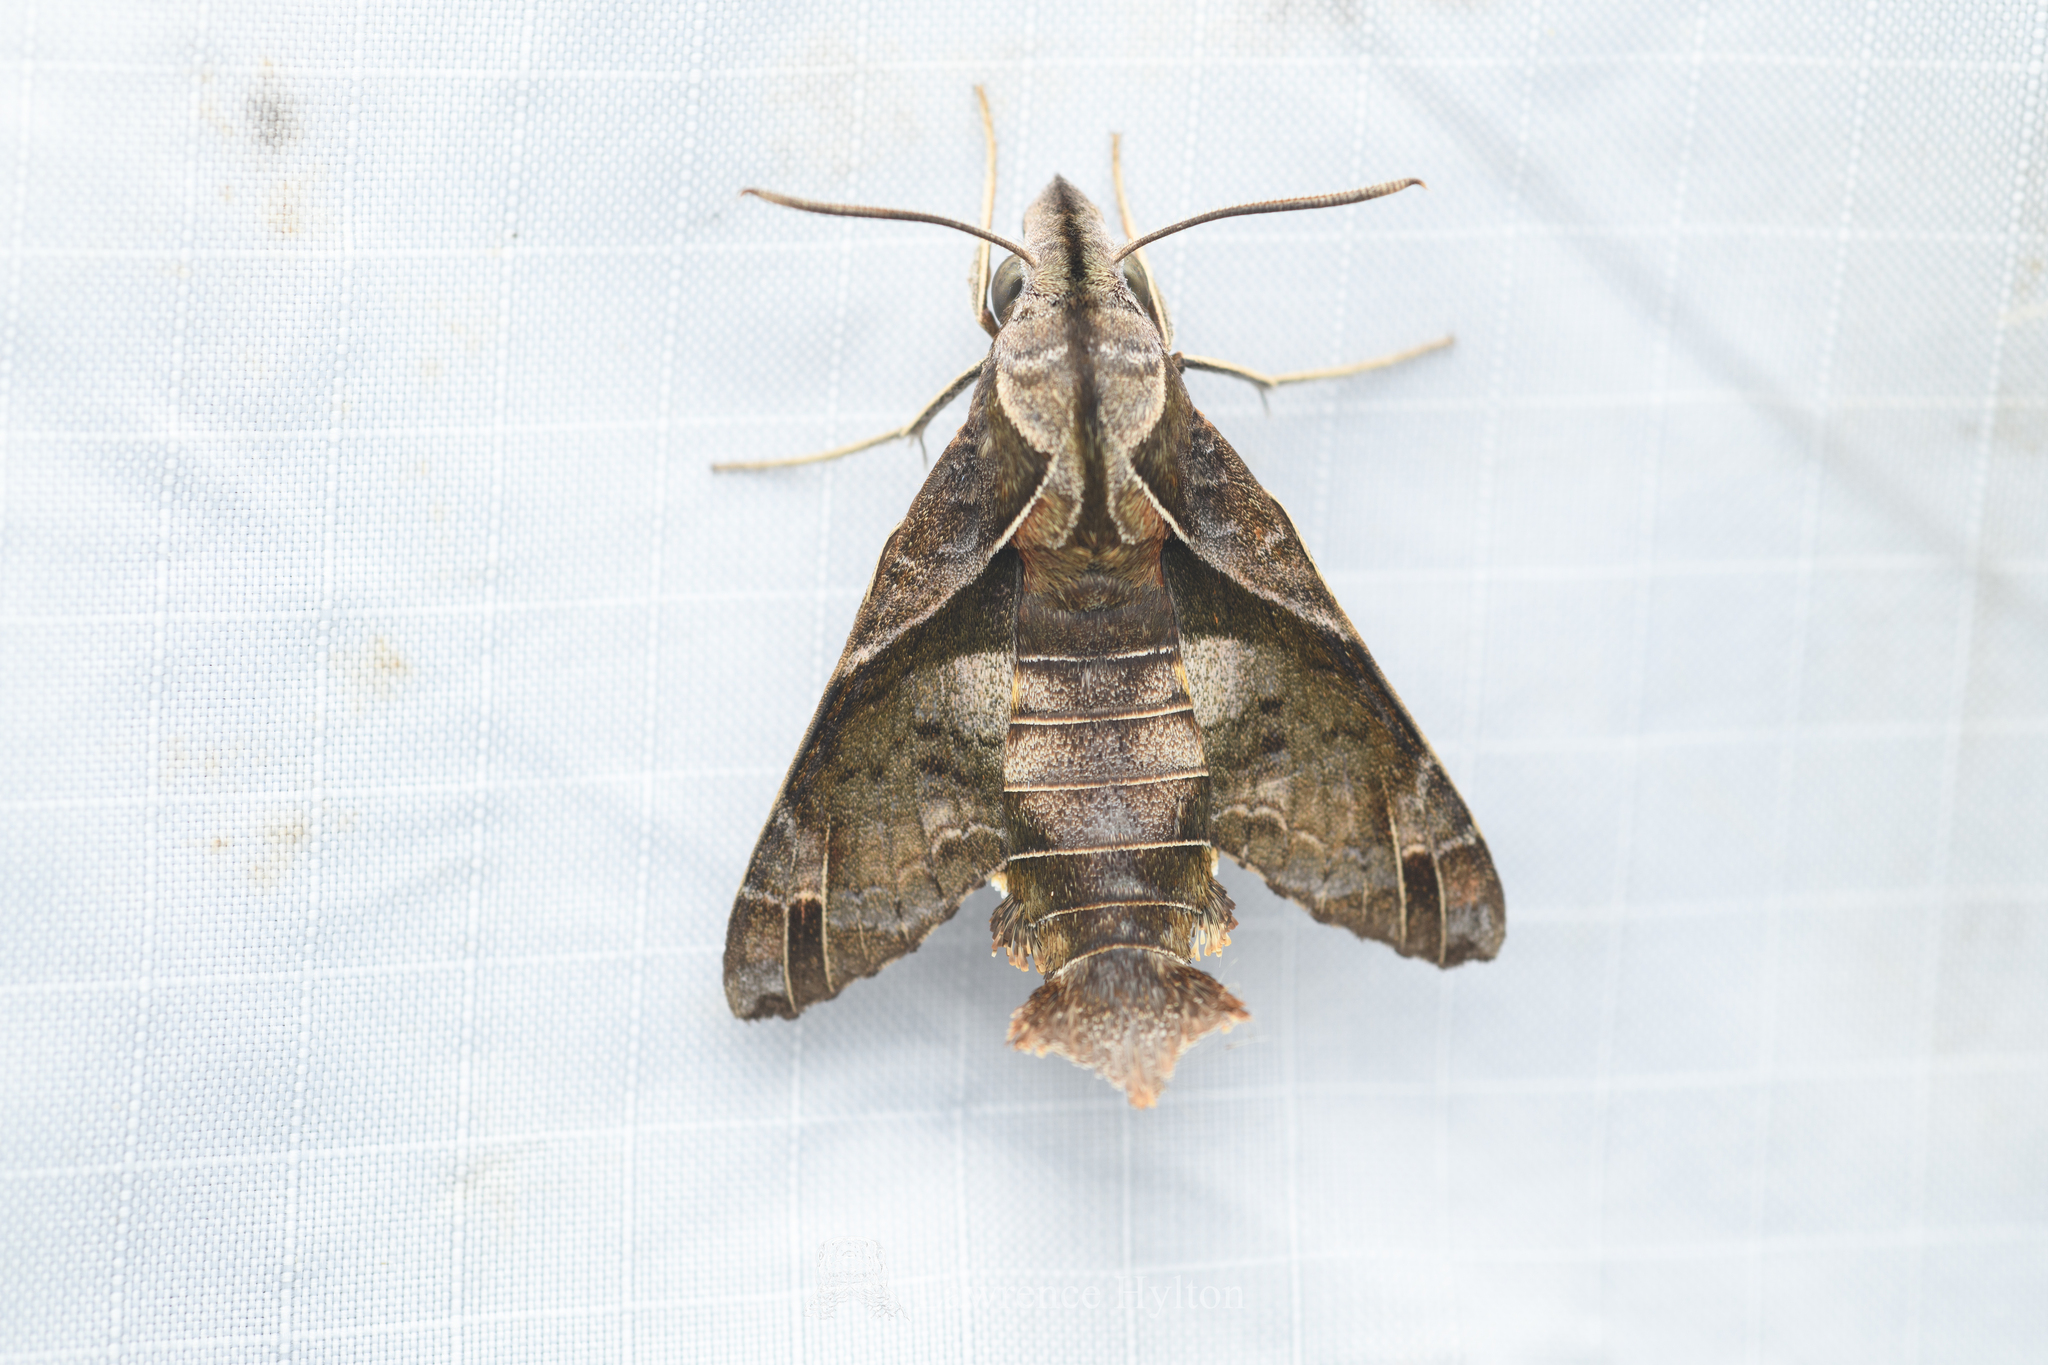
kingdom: Animalia
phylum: Arthropoda
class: Insecta
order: Lepidoptera
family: Sphingidae
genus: Macroglossum
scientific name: Macroglossum fritzei
